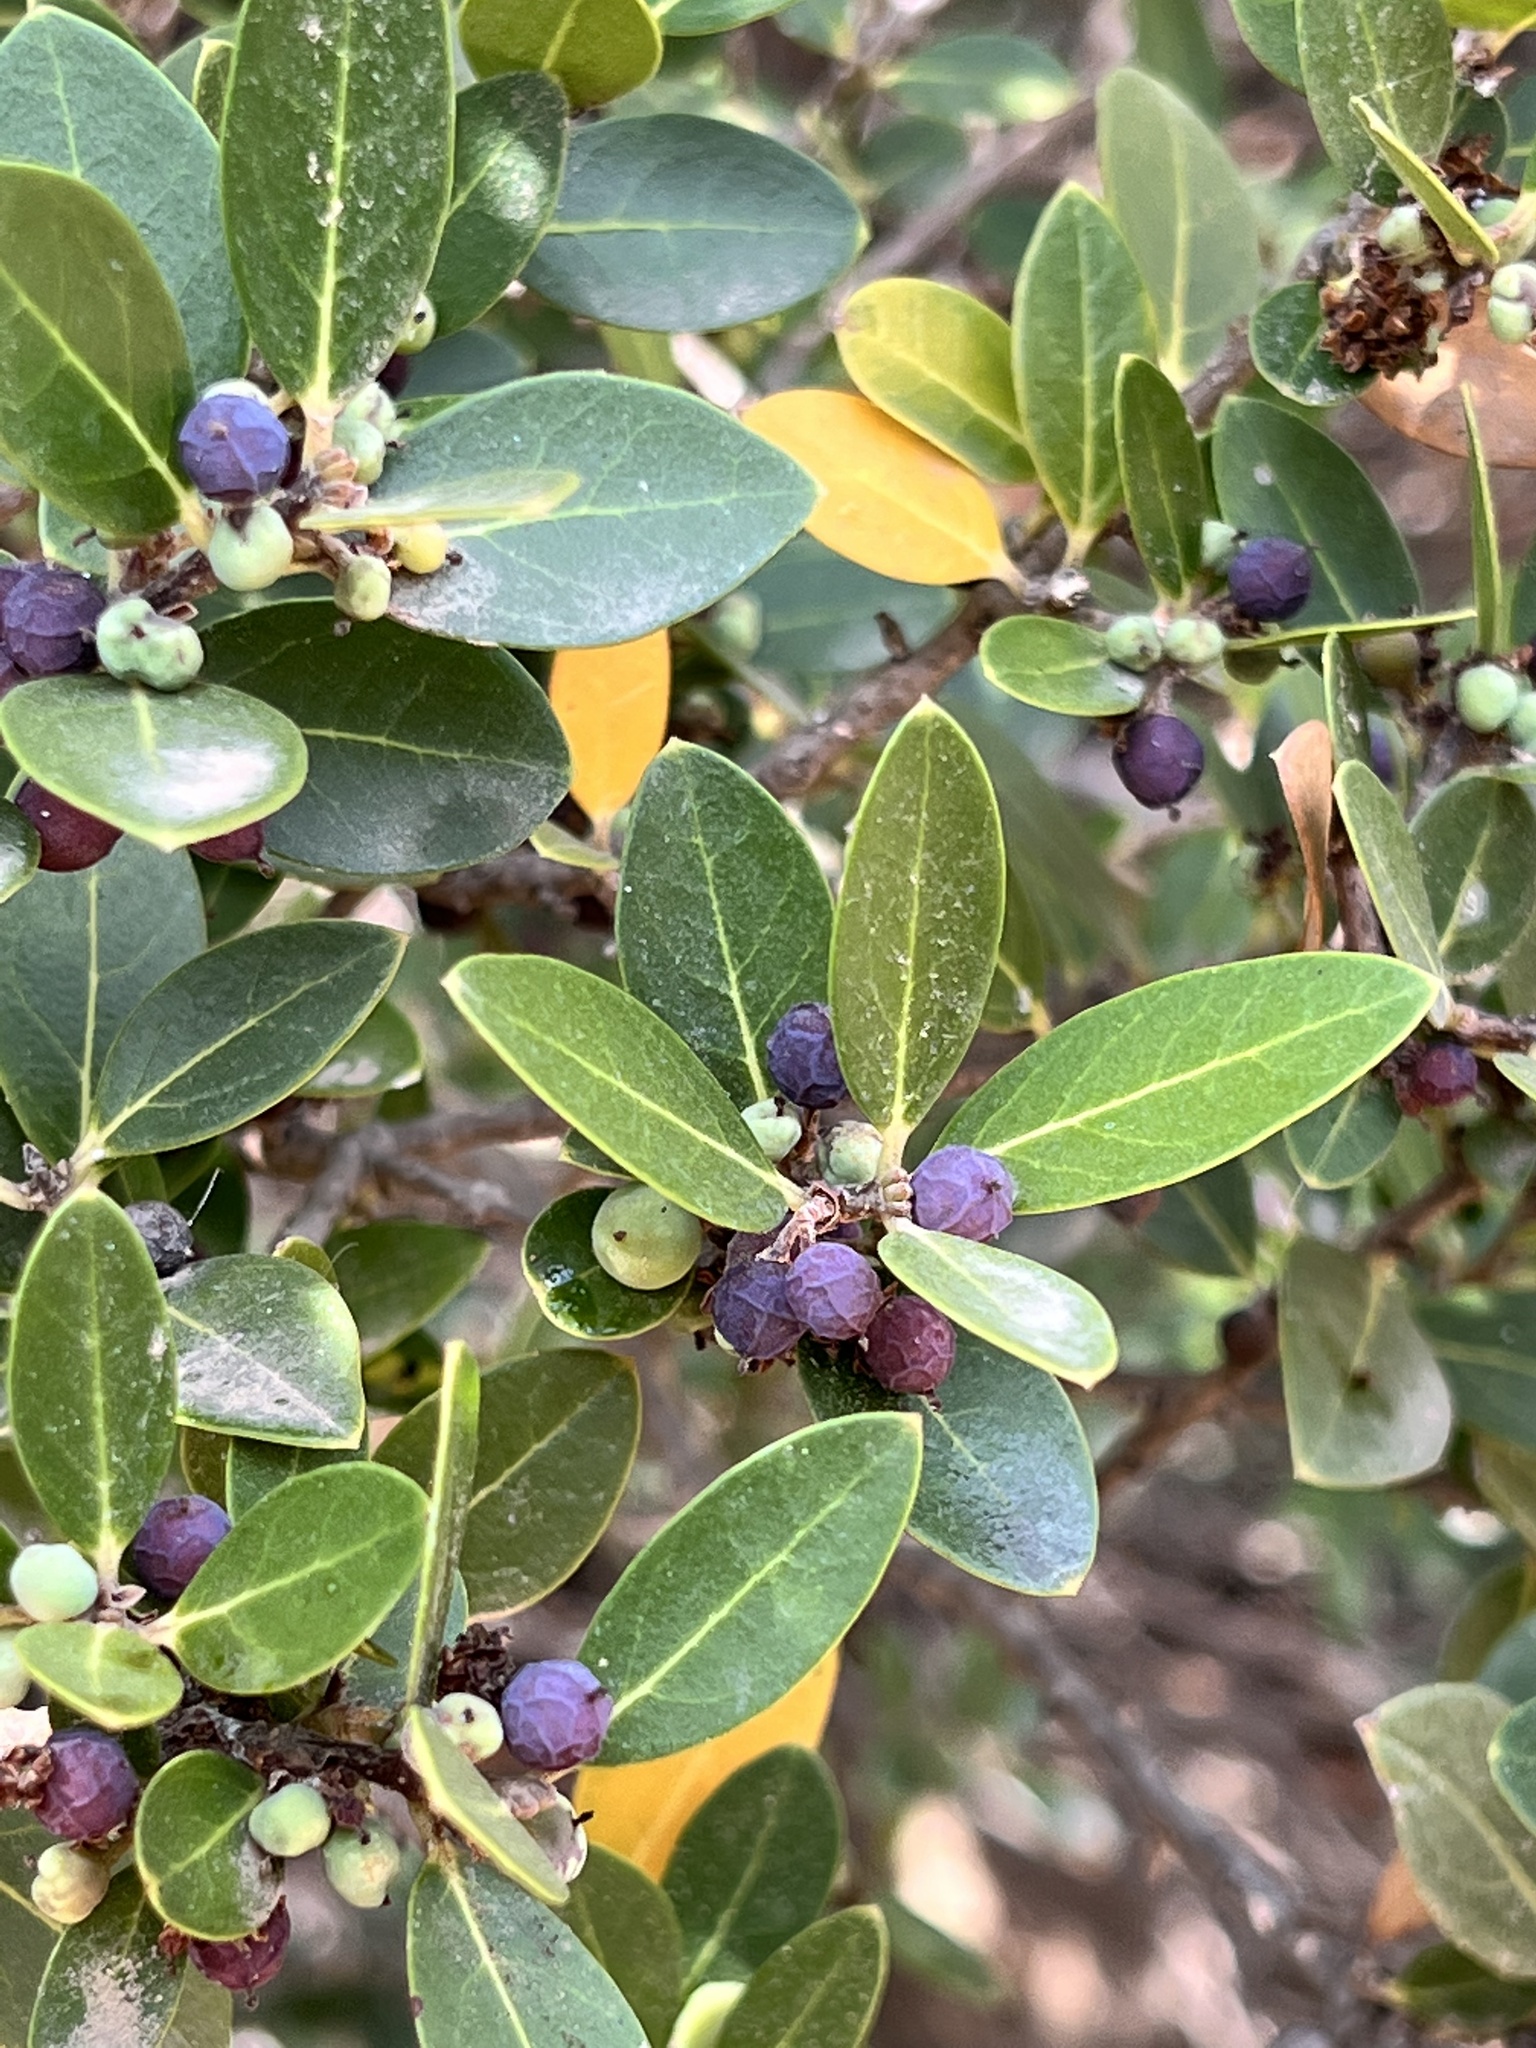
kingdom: Plantae
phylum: Tracheophyta
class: Magnoliopsida
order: Lamiales
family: Oleaceae
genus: Phillyrea
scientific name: Phillyrea latifolia
